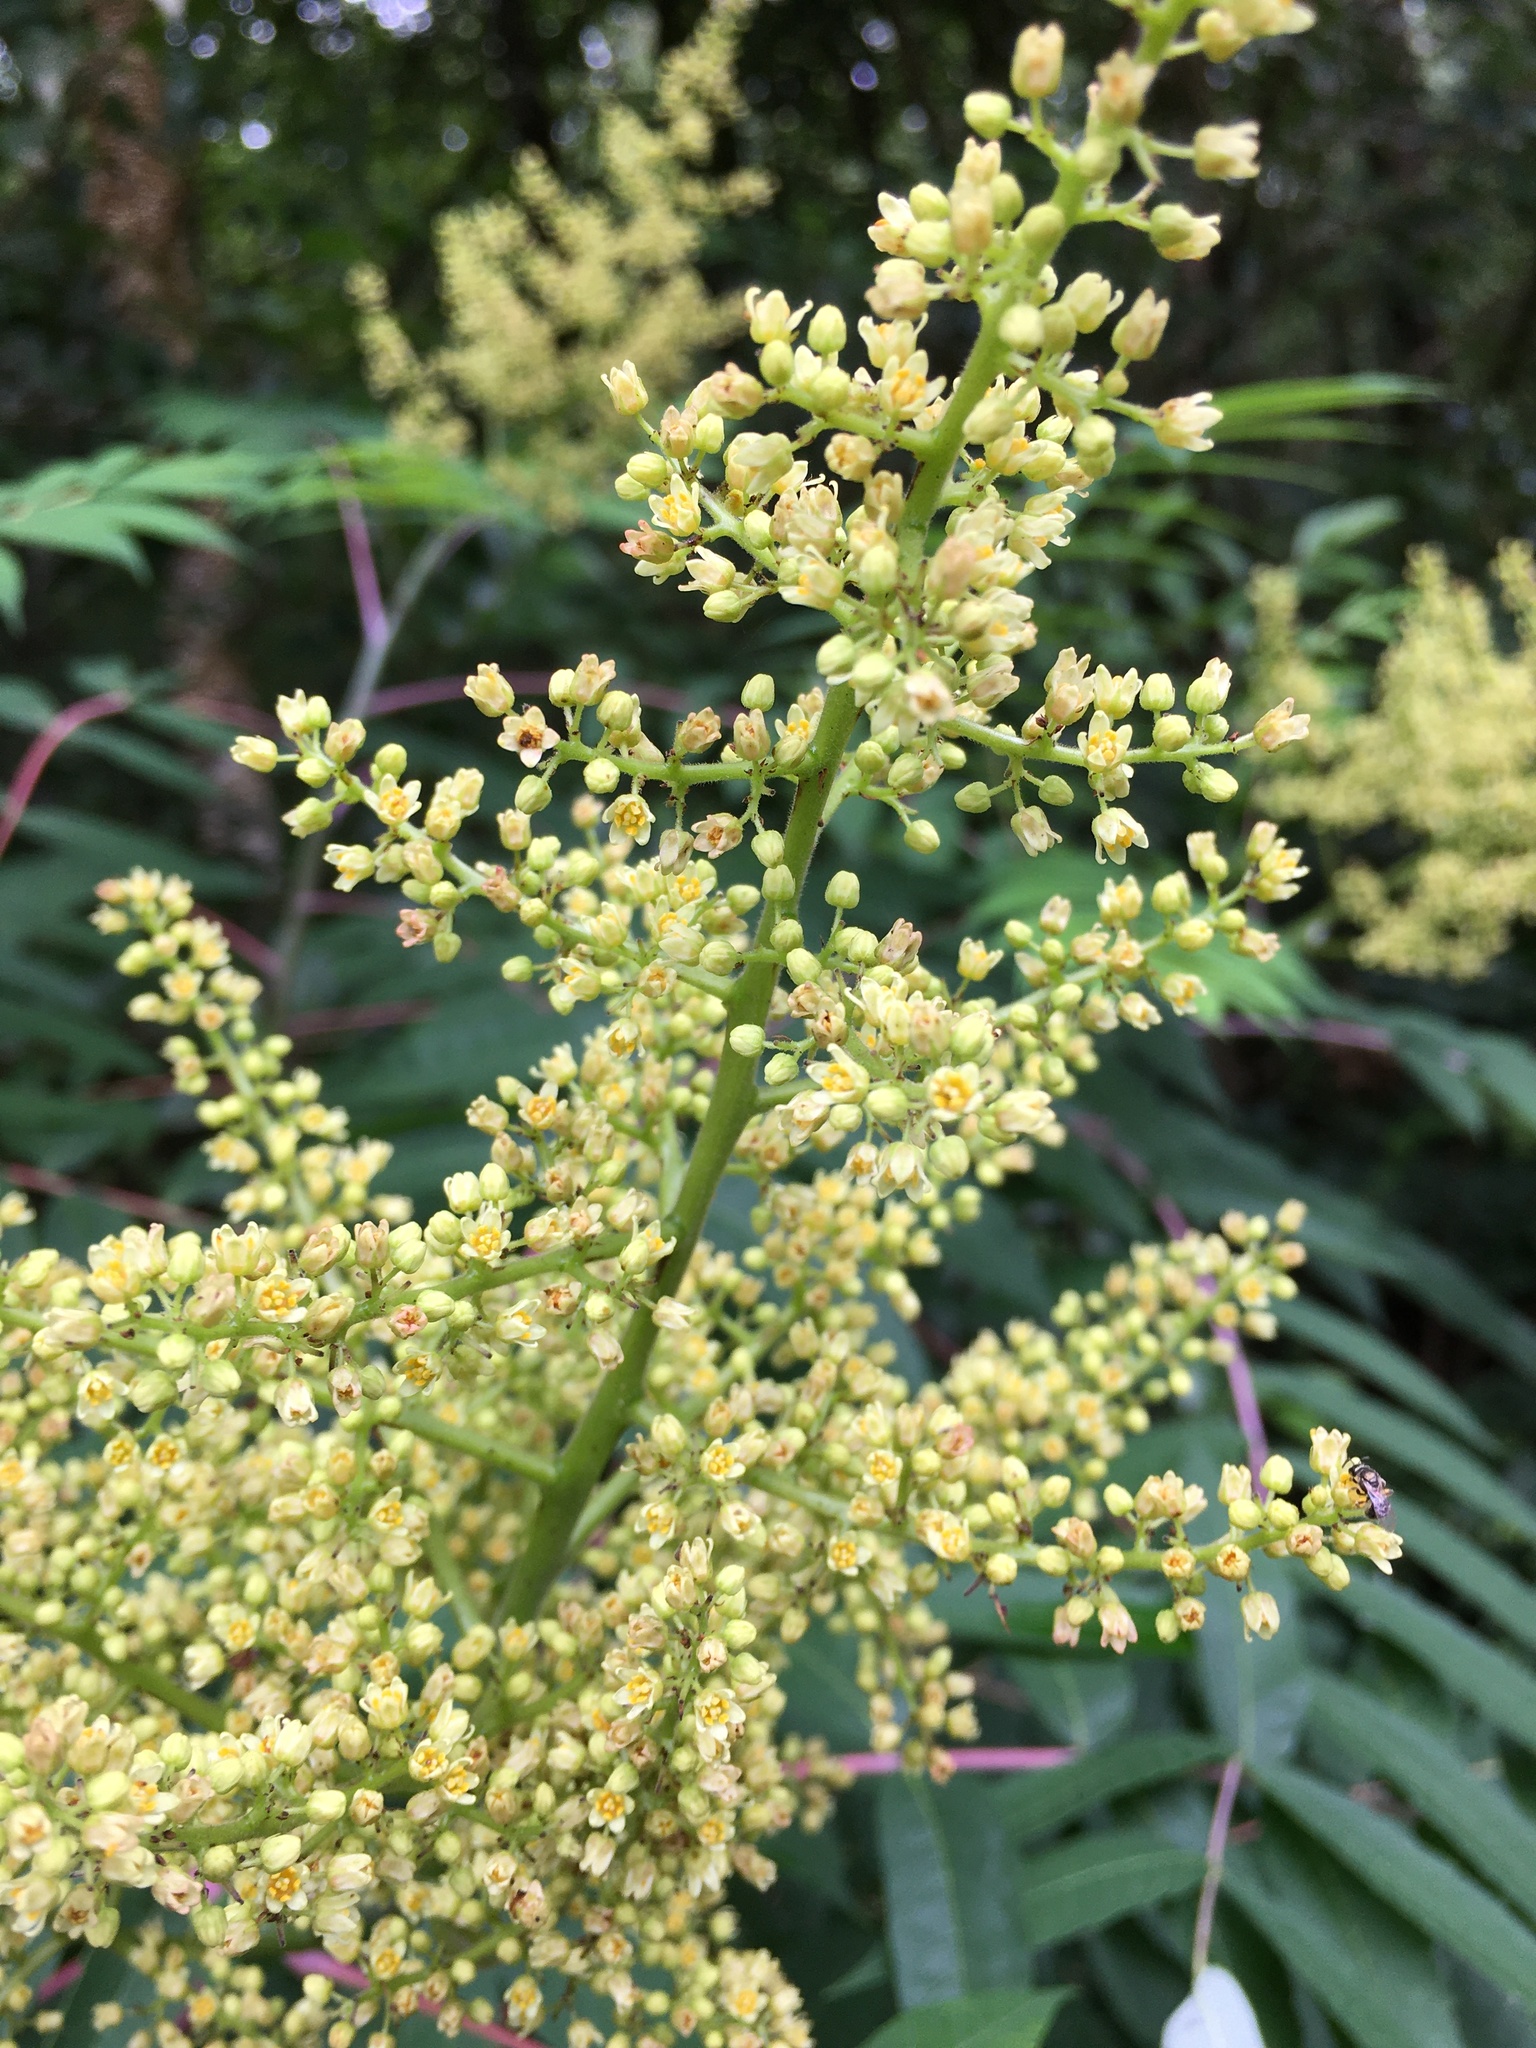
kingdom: Plantae
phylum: Tracheophyta
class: Magnoliopsida
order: Sapindales
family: Anacardiaceae
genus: Rhus
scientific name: Rhus glabra
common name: Scarlet sumac
